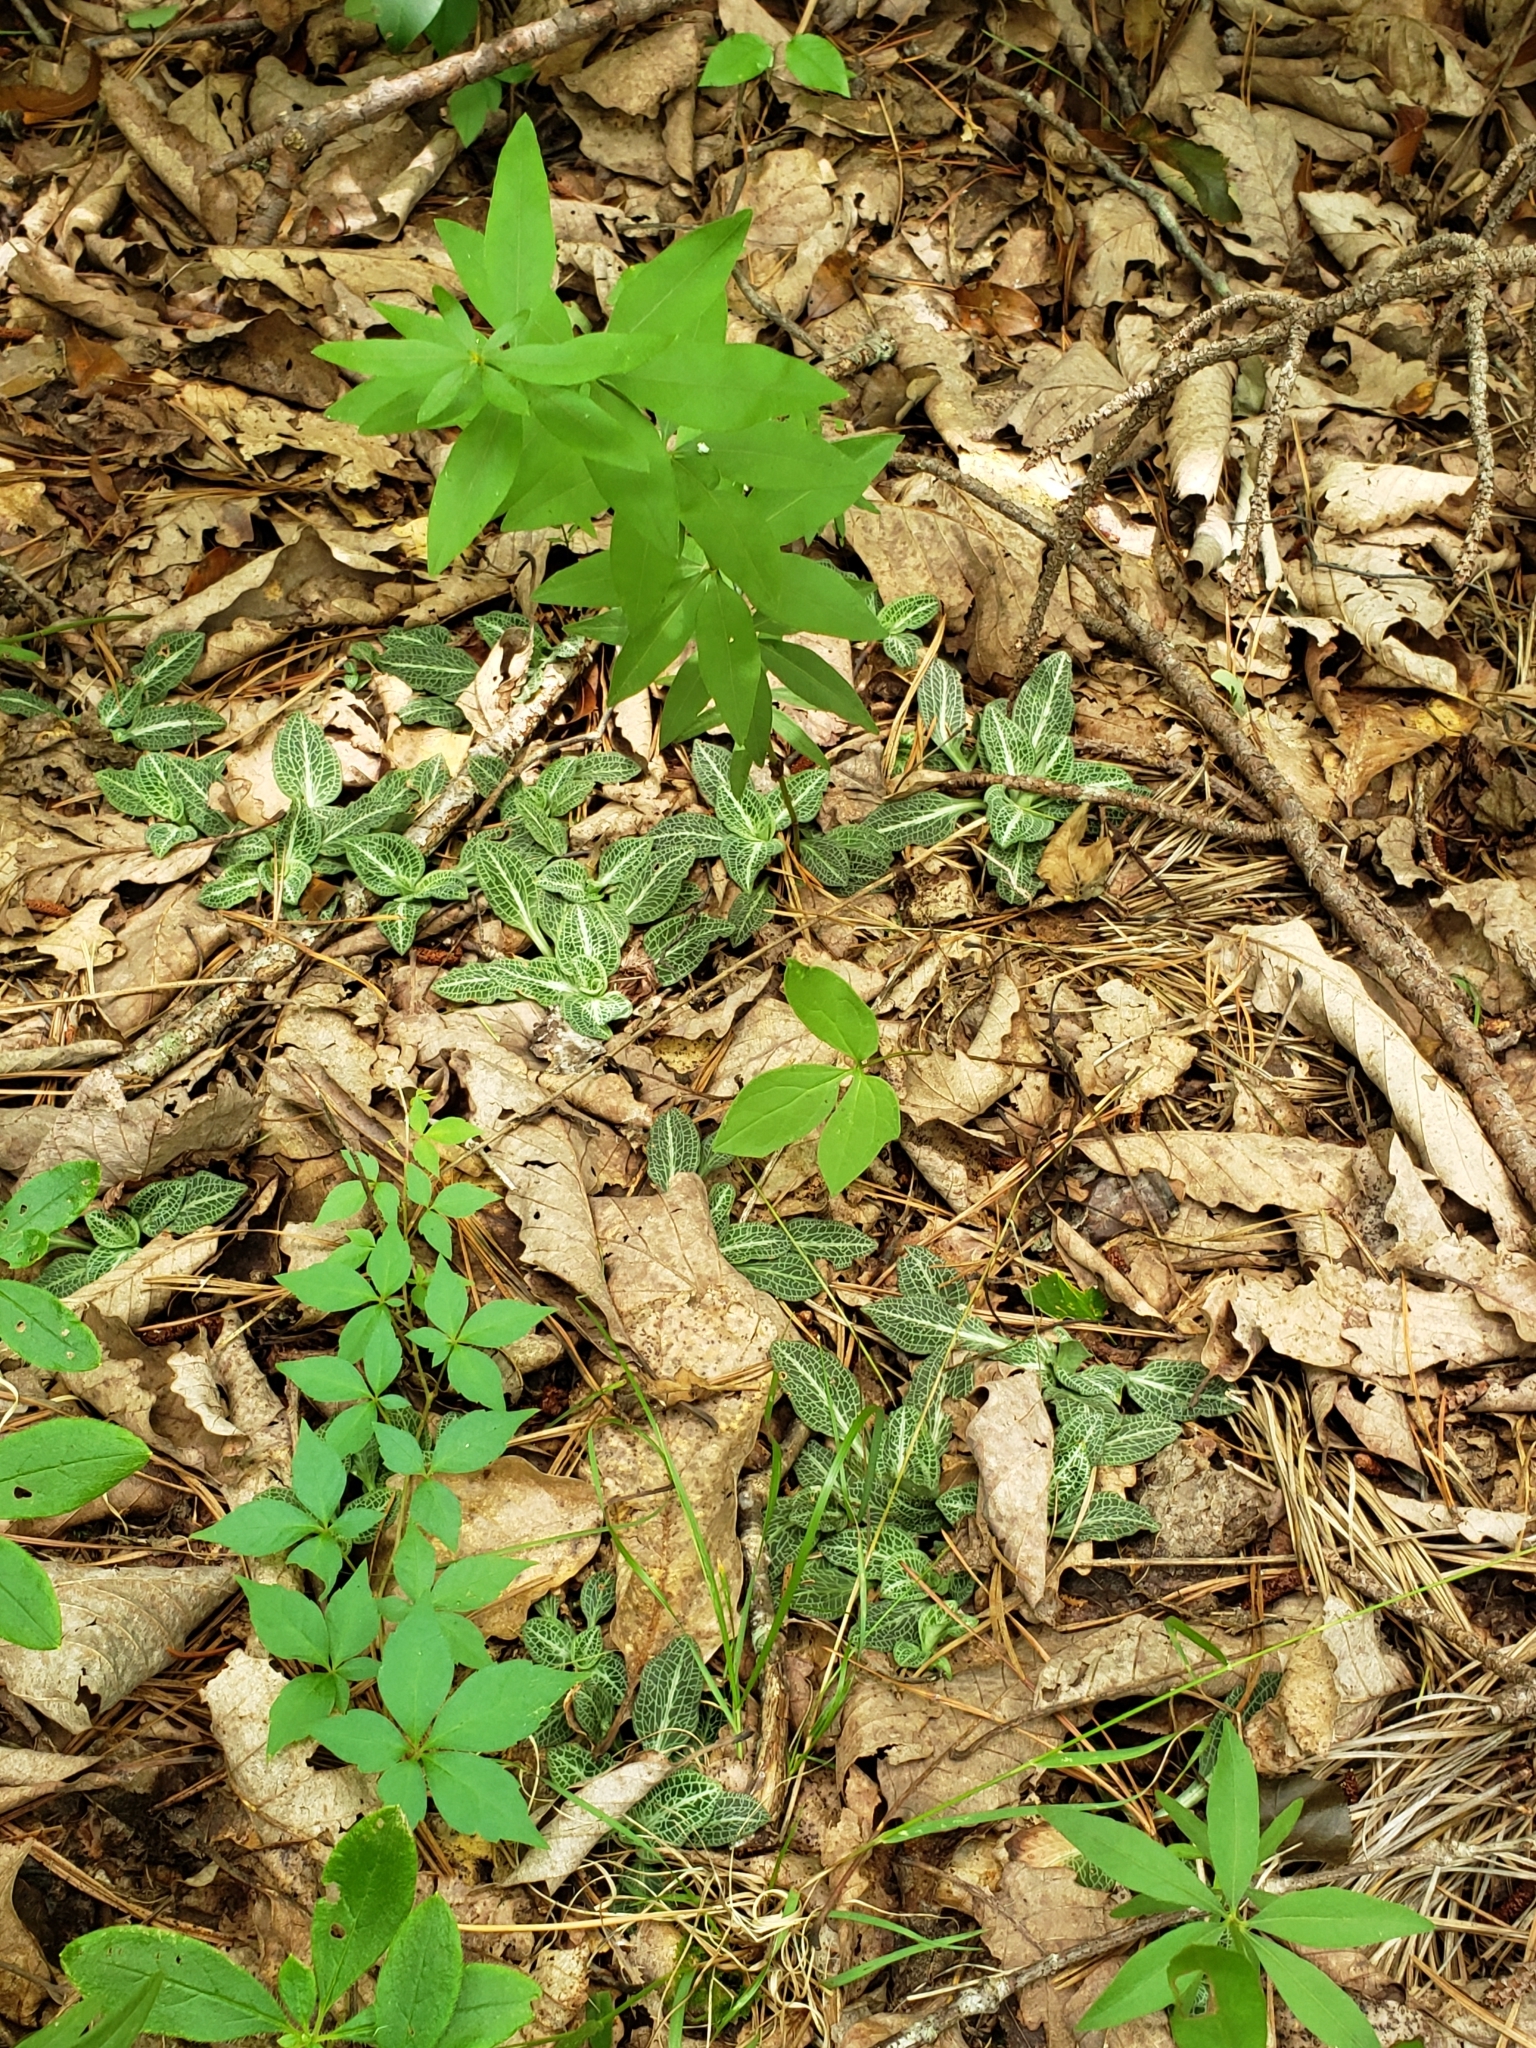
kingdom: Plantae
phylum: Tracheophyta
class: Liliopsida
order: Asparagales
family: Orchidaceae
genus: Goodyera
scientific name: Goodyera pubescens
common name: Downy rattlesnake-plantain
